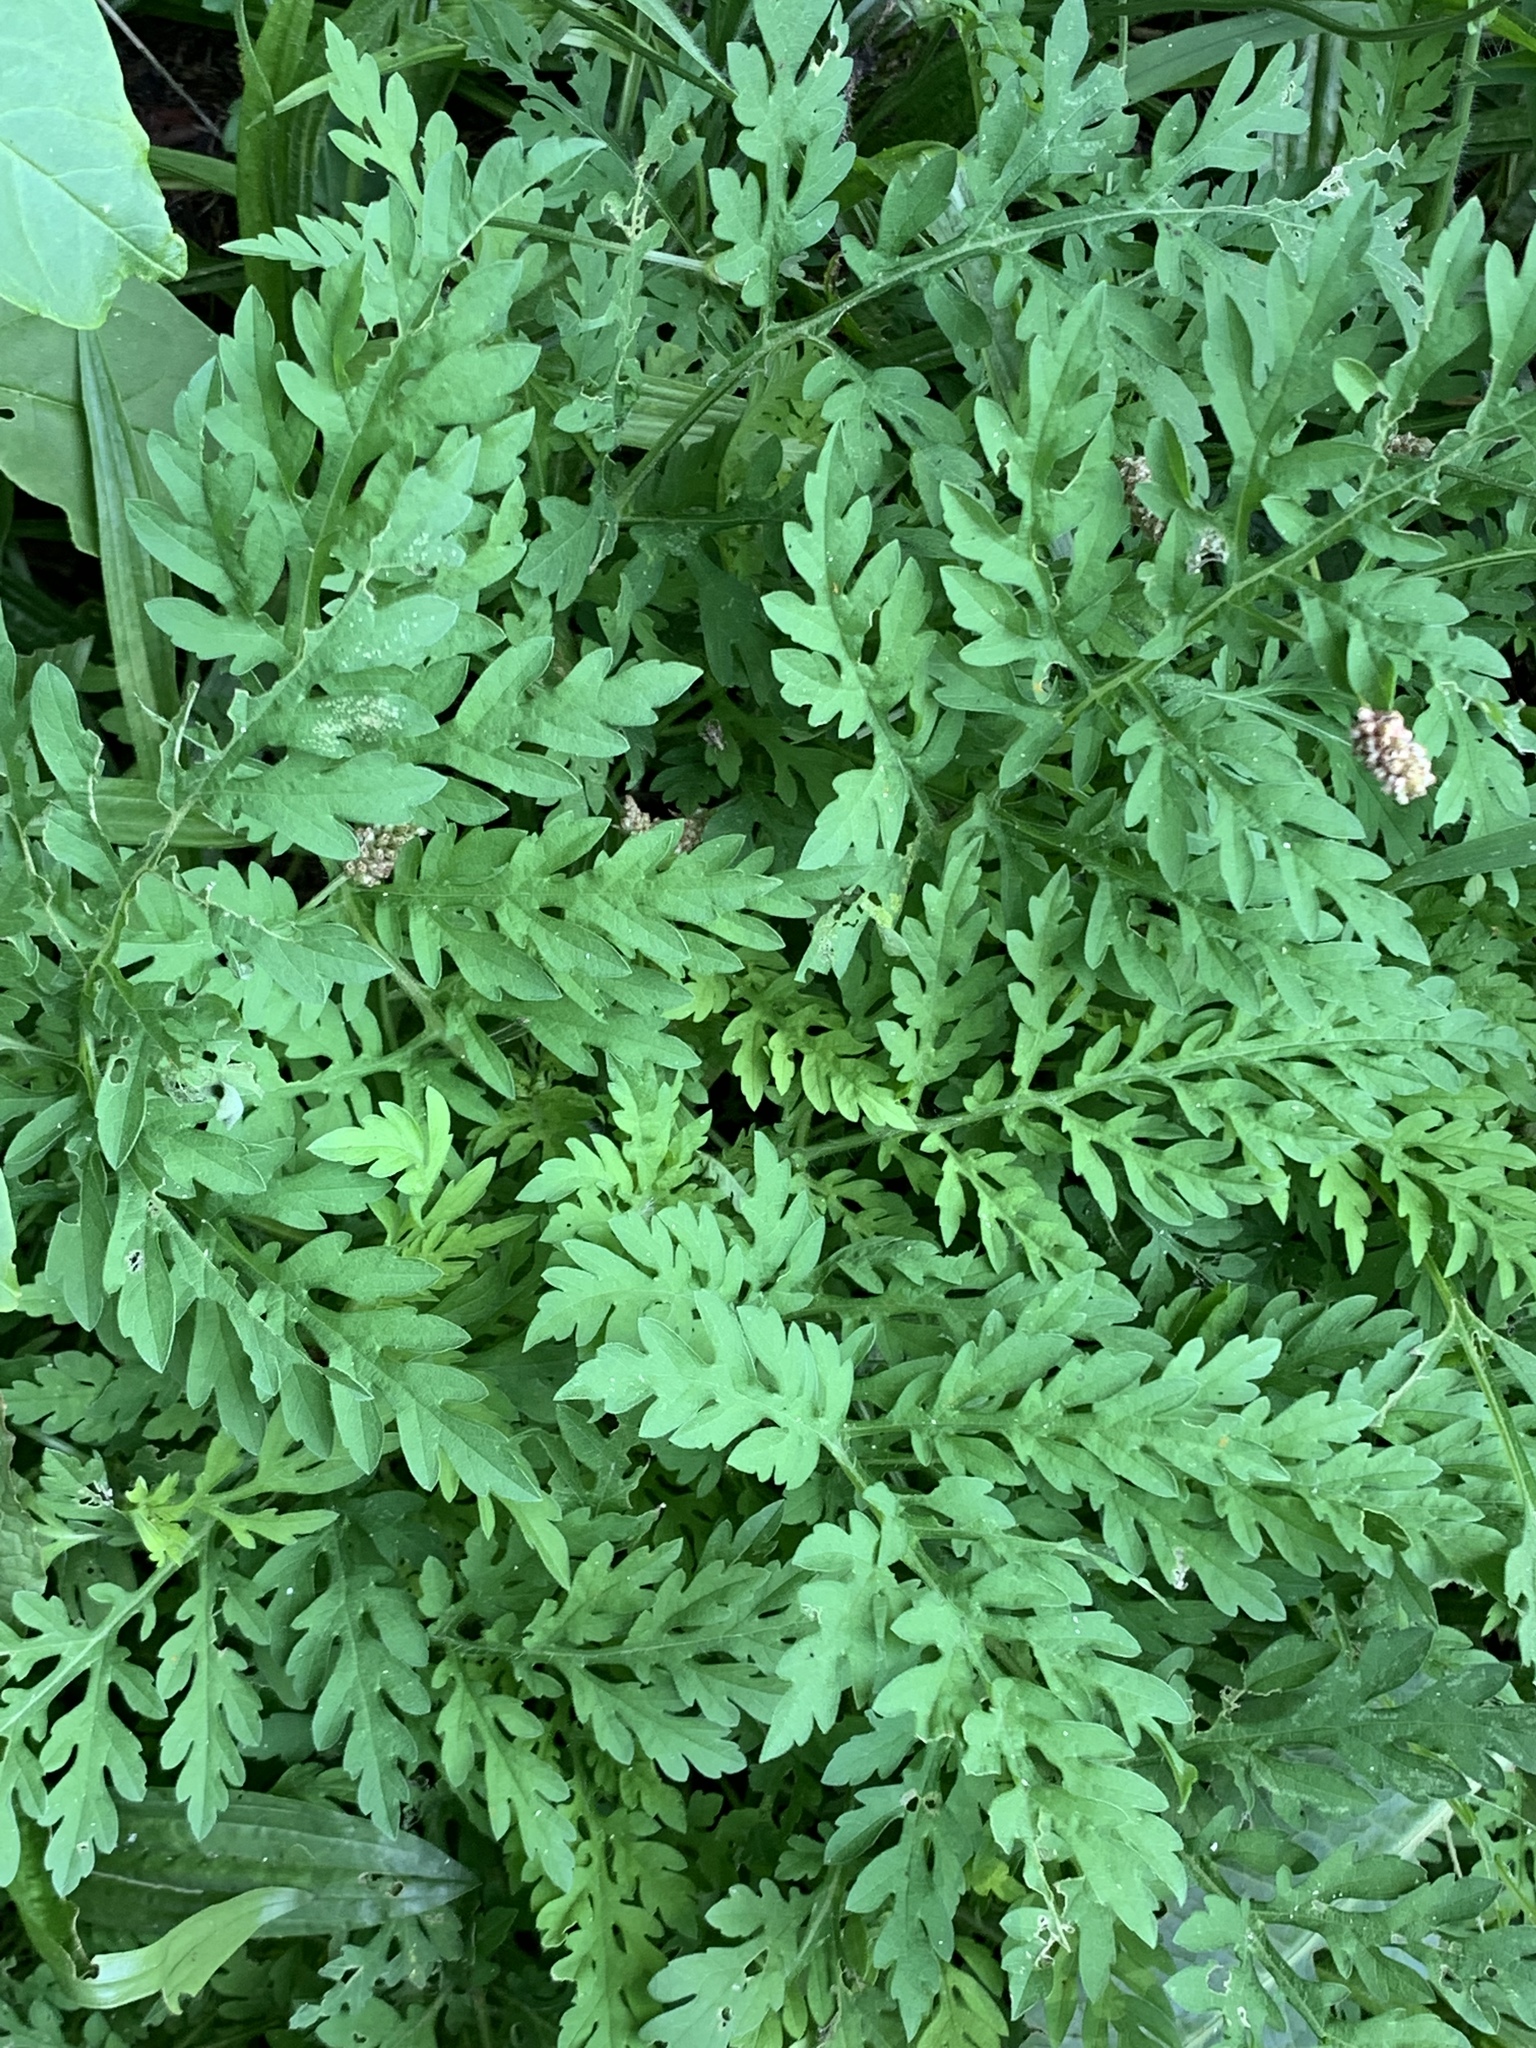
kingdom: Plantae
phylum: Tracheophyta
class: Magnoliopsida
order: Asterales
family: Asteraceae
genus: Ambrosia
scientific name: Ambrosia artemisiifolia
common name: Annual ragweed
